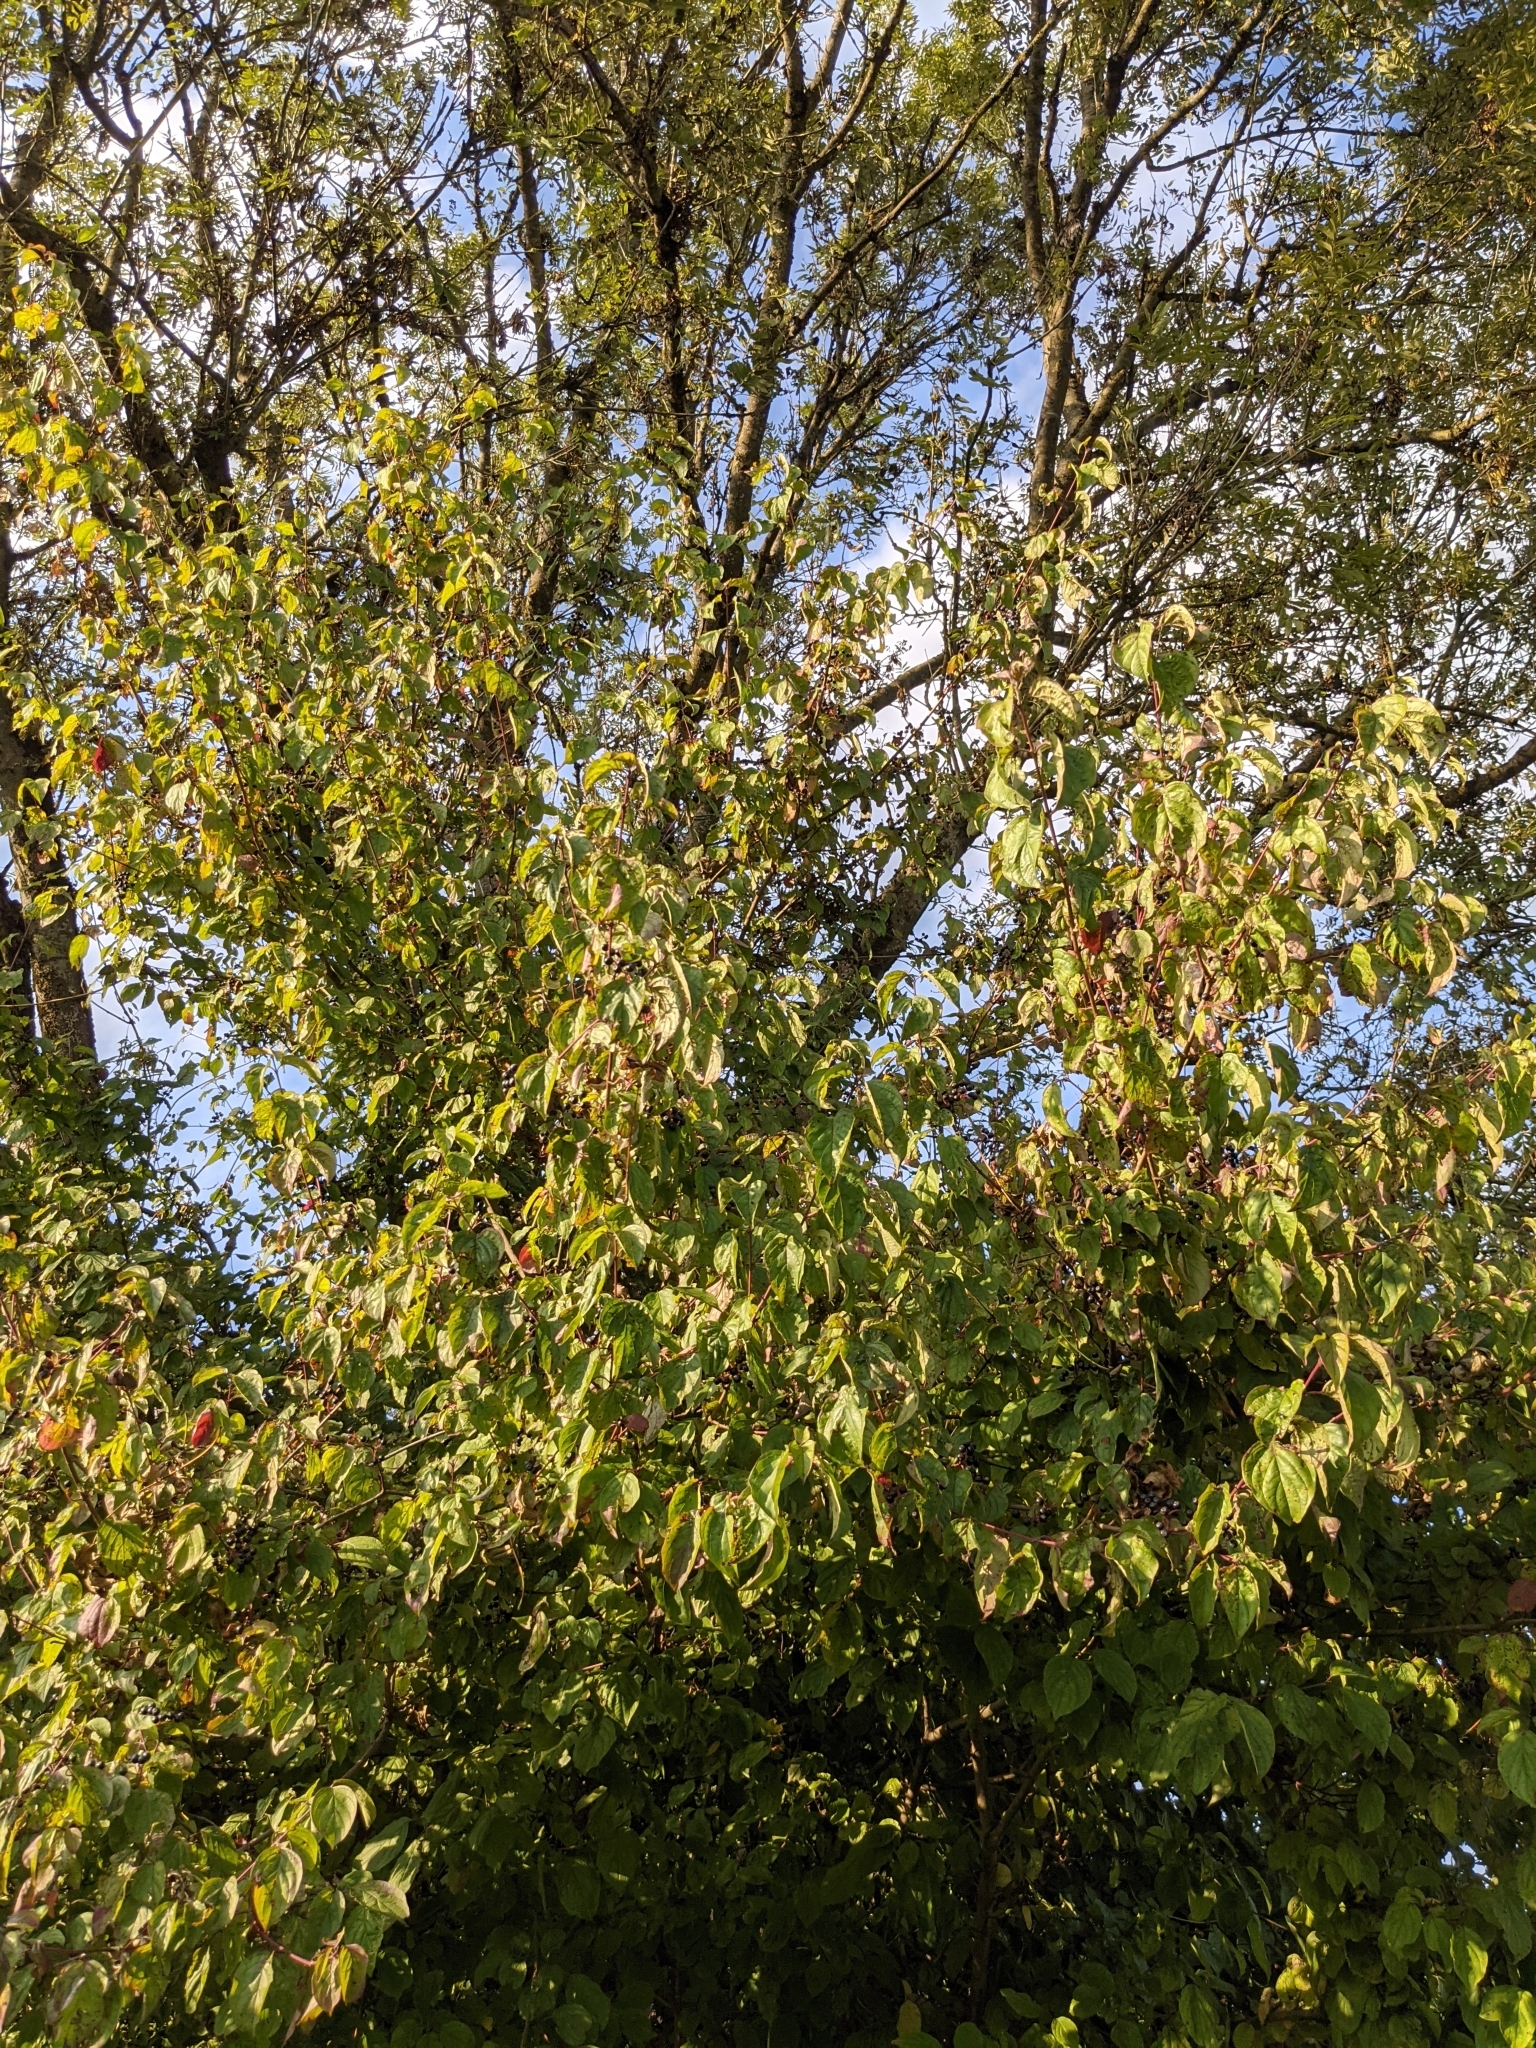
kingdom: Plantae
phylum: Tracheophyta
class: Magnoliopsida
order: Cornales
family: Cornaceae
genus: Cornus
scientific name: Cornus sanguinea
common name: Dogwood
